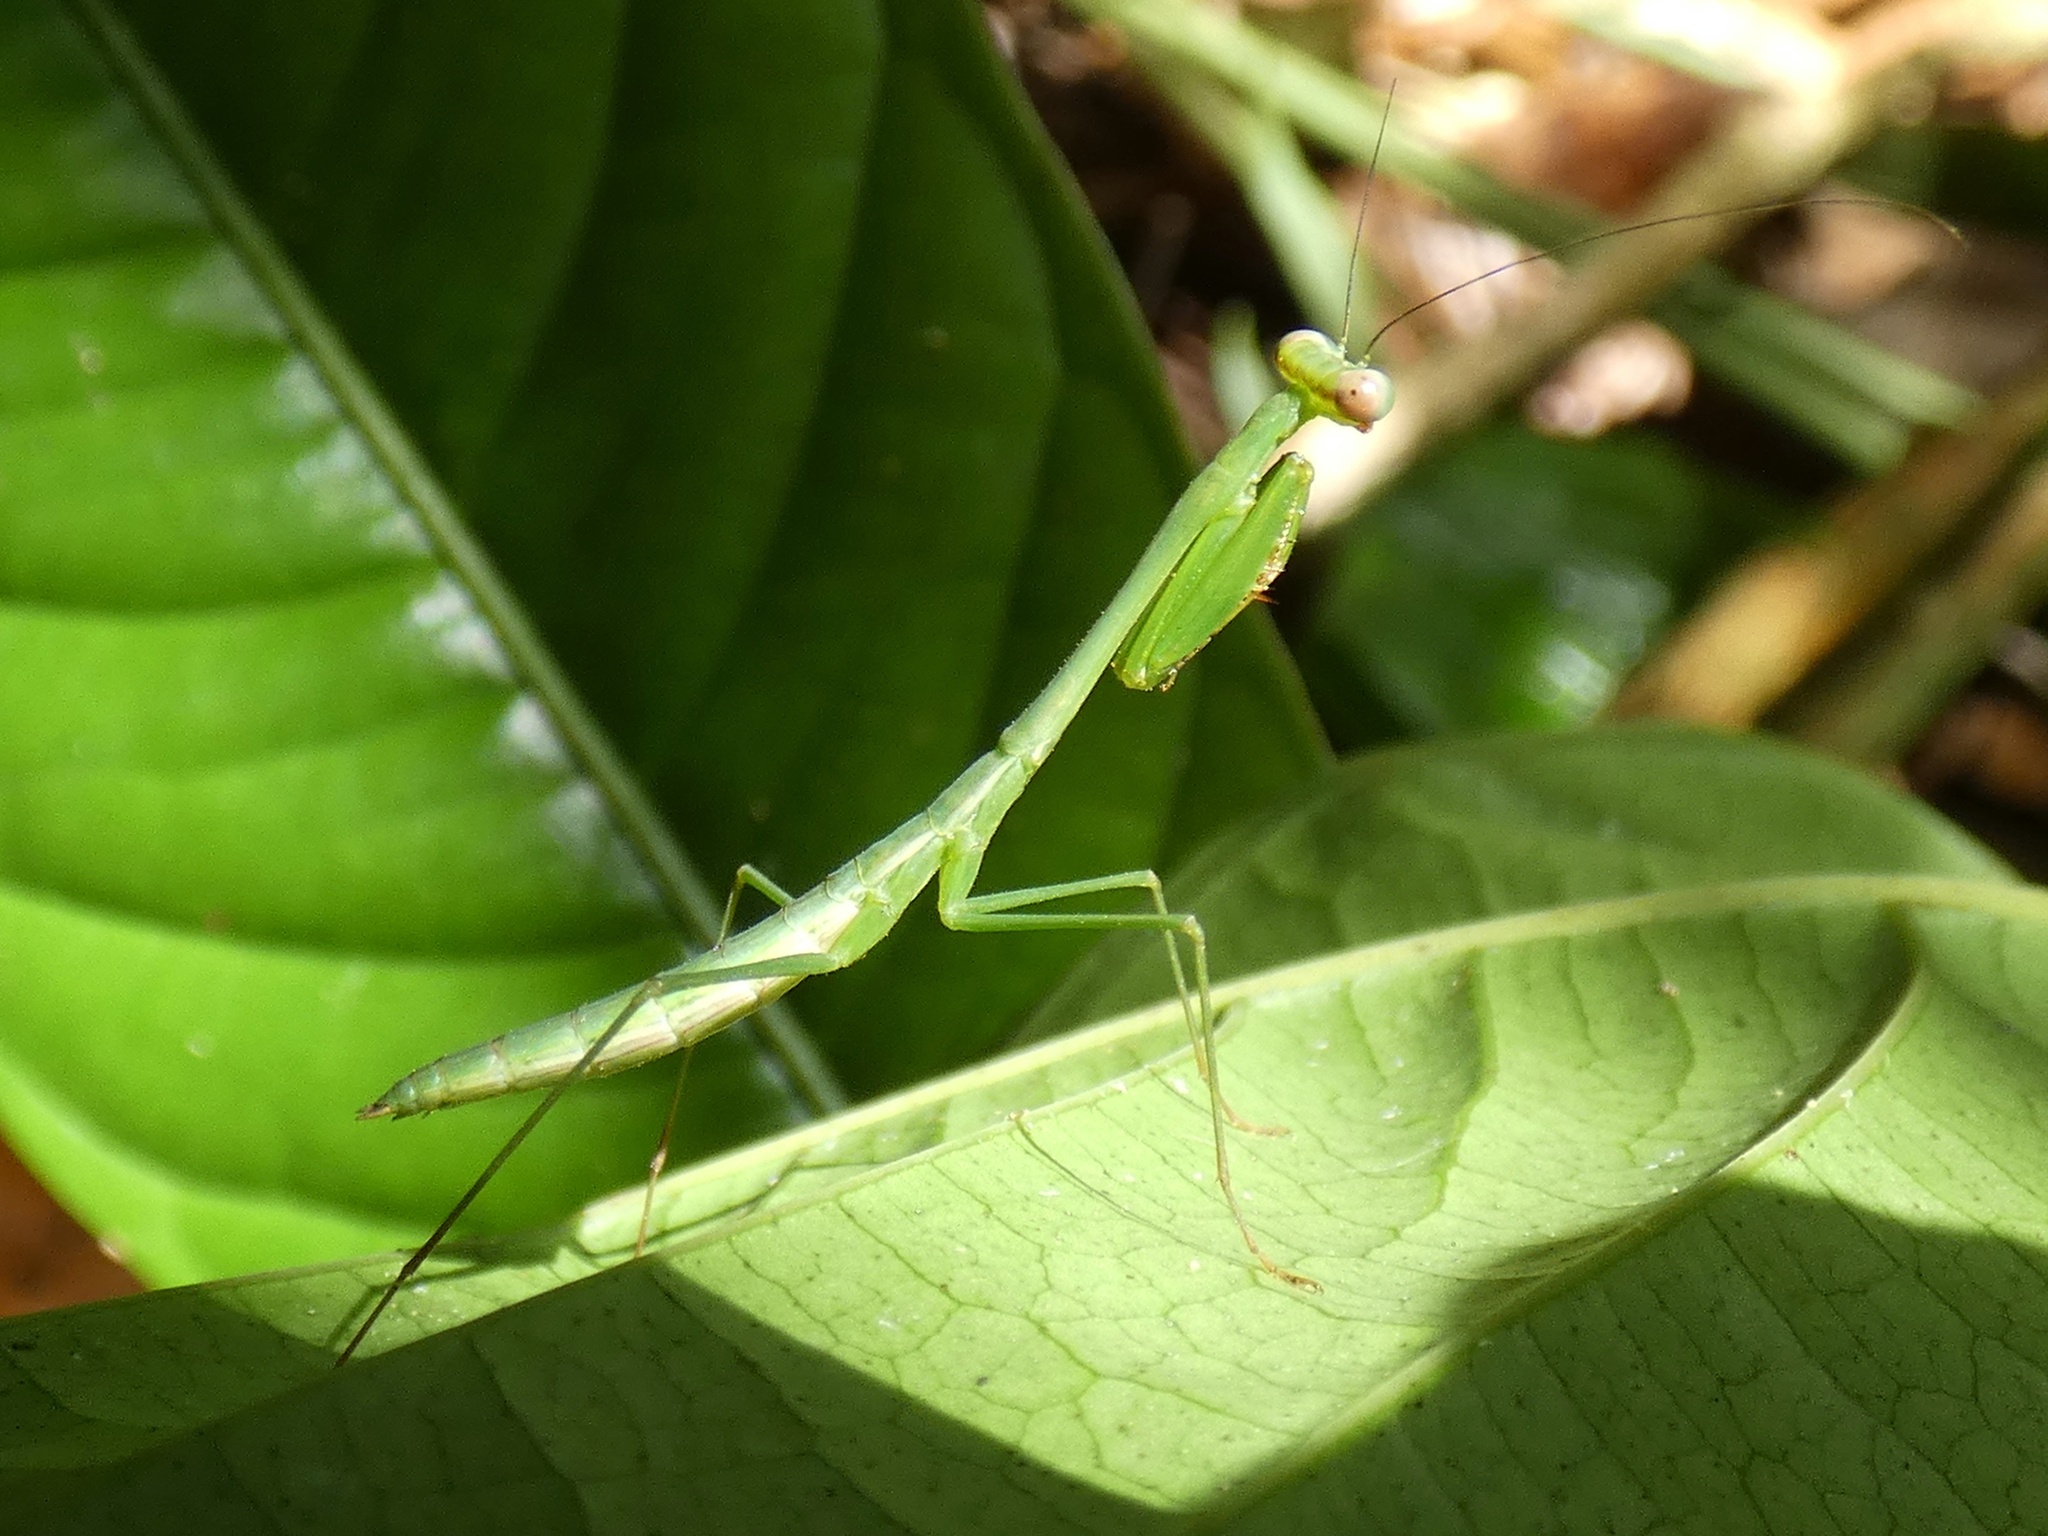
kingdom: Animalia
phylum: Arthropoda
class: Insecta
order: Mantodea
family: Mantidae
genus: Chopardiella
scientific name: Chopardiella heterogamia
